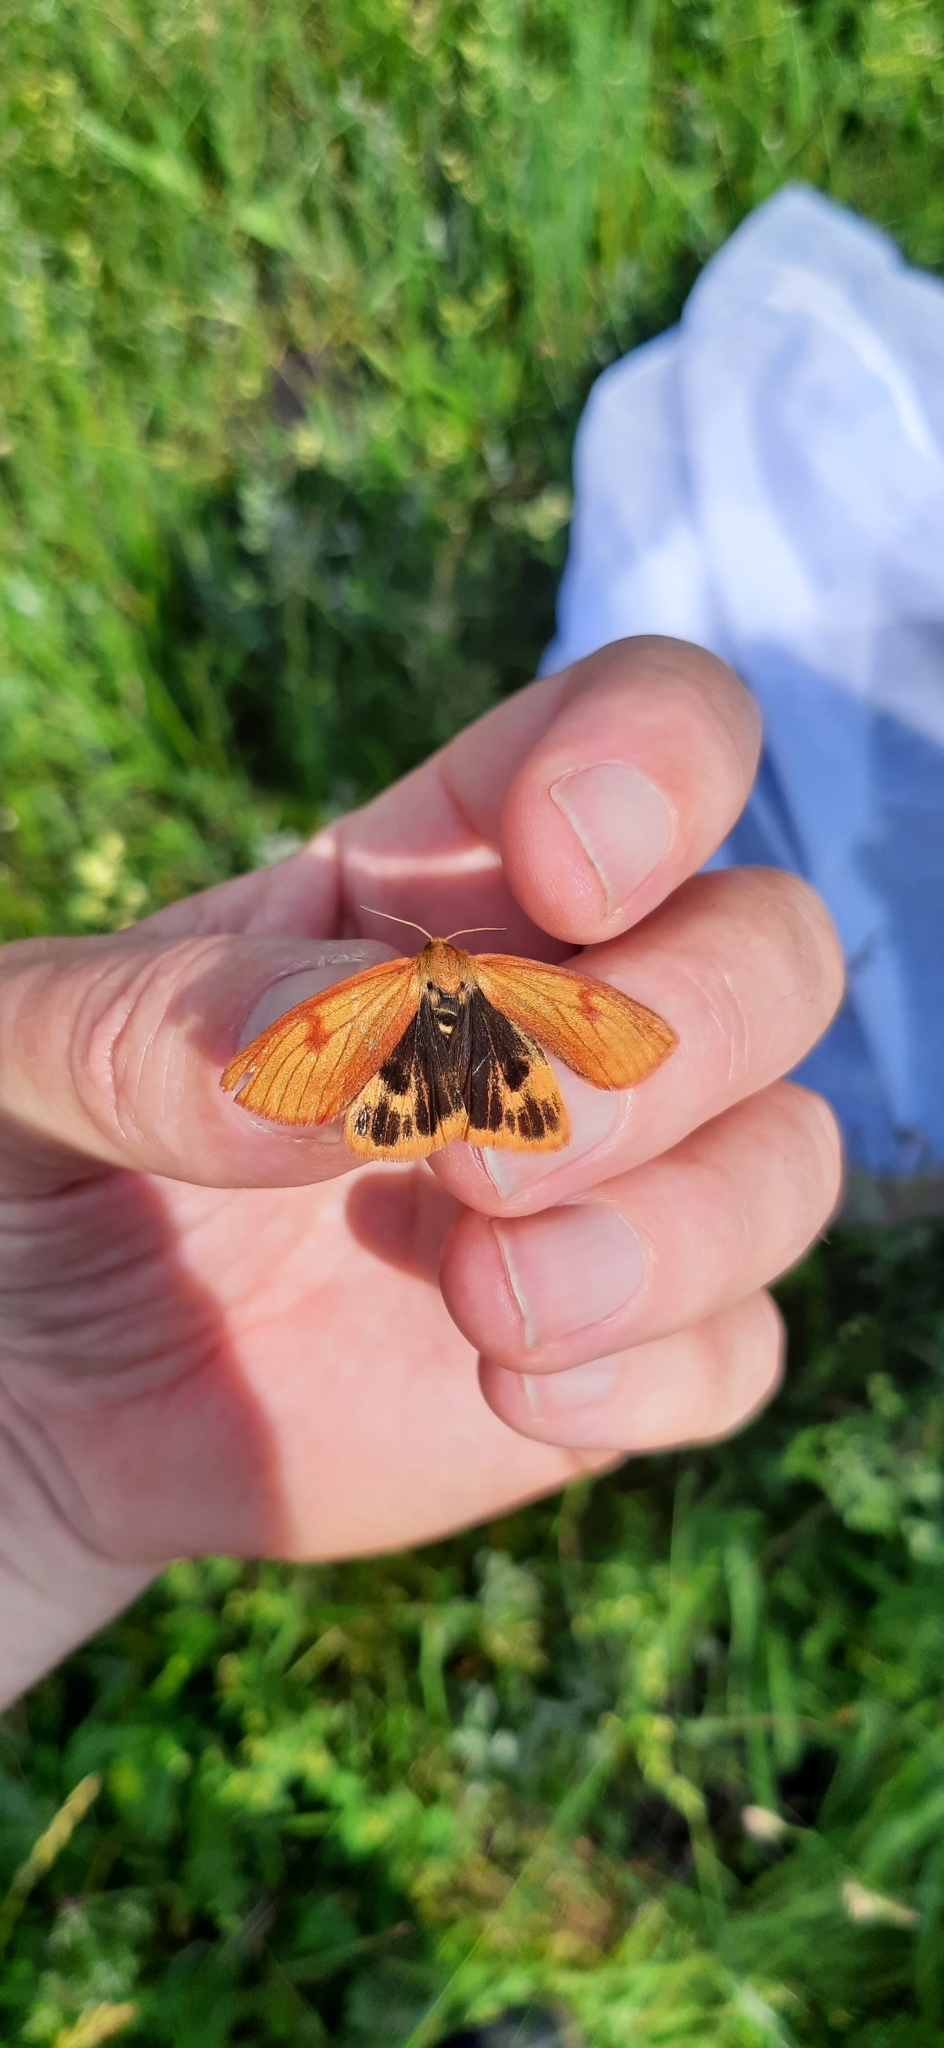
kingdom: Animalia
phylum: Arthropoda
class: Insecta
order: Lepidoptera
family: Erebidae
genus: Diacrisia
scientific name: Diacrisia sannio
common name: Clouded buff
